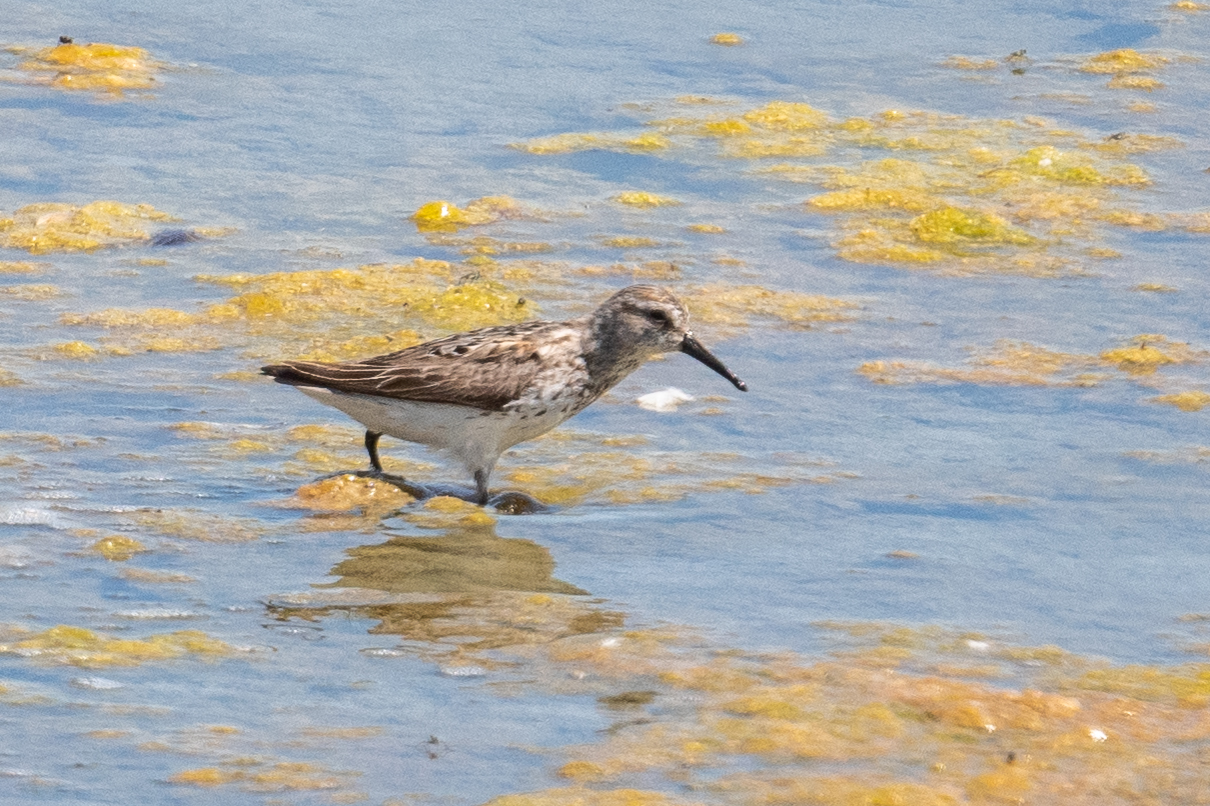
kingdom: Animalia
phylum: Chordata
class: Aves
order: Charadriiformes
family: Scolopacidae
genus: Calidris
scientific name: Calidris mauri
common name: Western sandpiper
